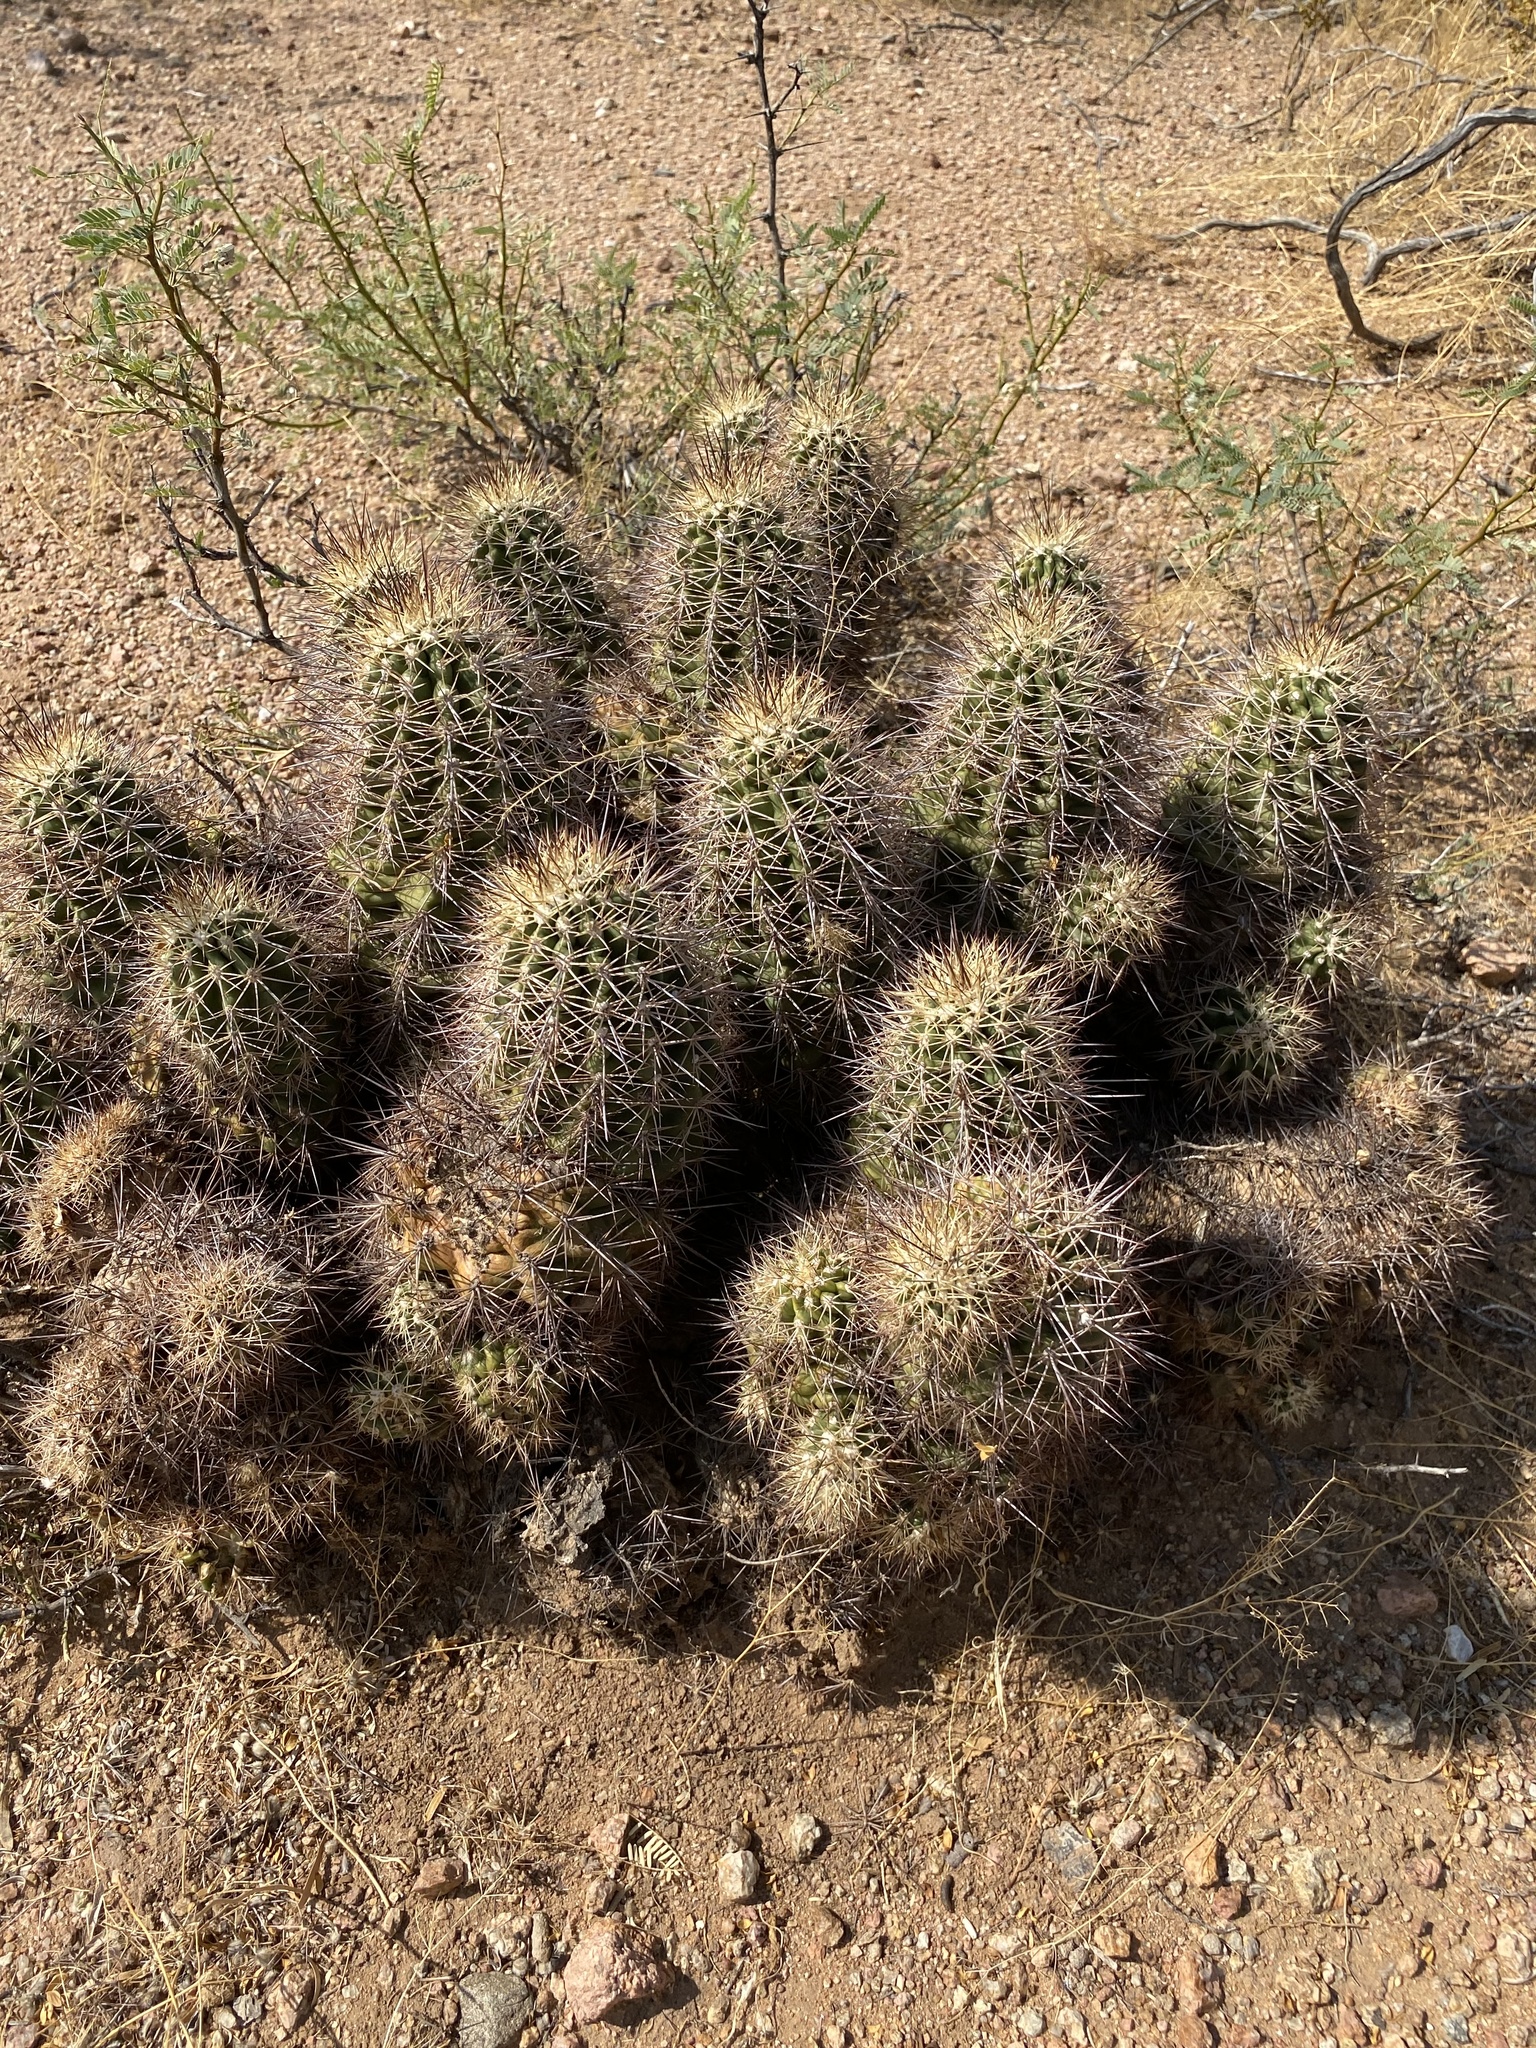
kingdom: Plantae
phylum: Tracheophyta
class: Magnoliopsida
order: Caryophyllales
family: Cactaceae
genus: Echinocereus
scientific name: Echinocereus coccineus
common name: Scarlet hedgehog cactus
